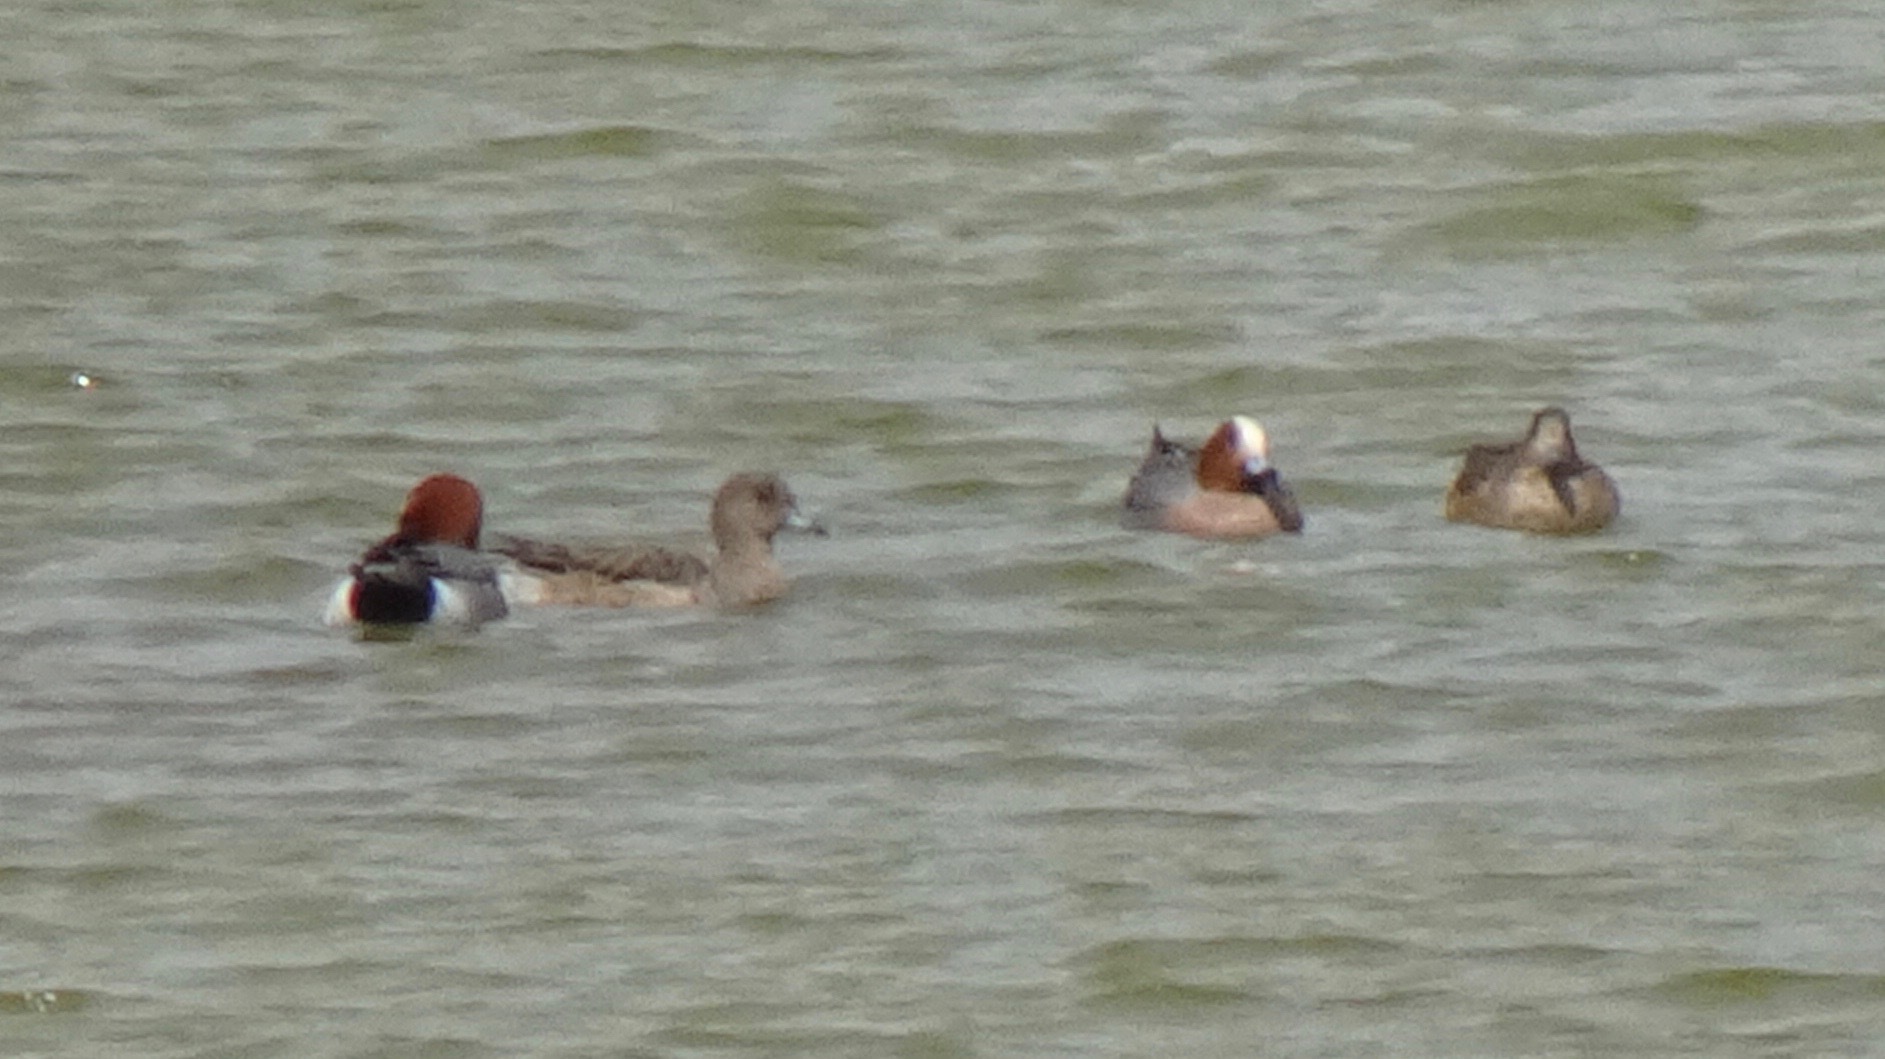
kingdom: Animalia
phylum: Chordata
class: Aves
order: Anseriformes
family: Anatidae
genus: Mareca
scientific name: Mareca penelope
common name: Eurasian wigeon
